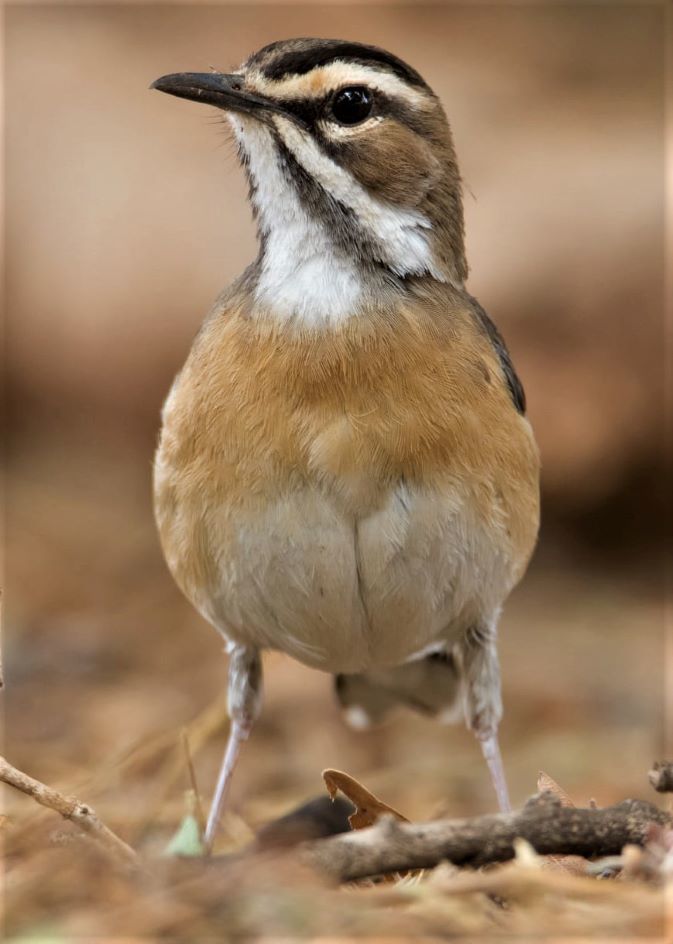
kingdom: Animalia
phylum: Chordata
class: Aves
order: Passeriformes
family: Muscicapidae
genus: Erythropygia
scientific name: Erythropygia quadrivirgata
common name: Bearded scrub robin
